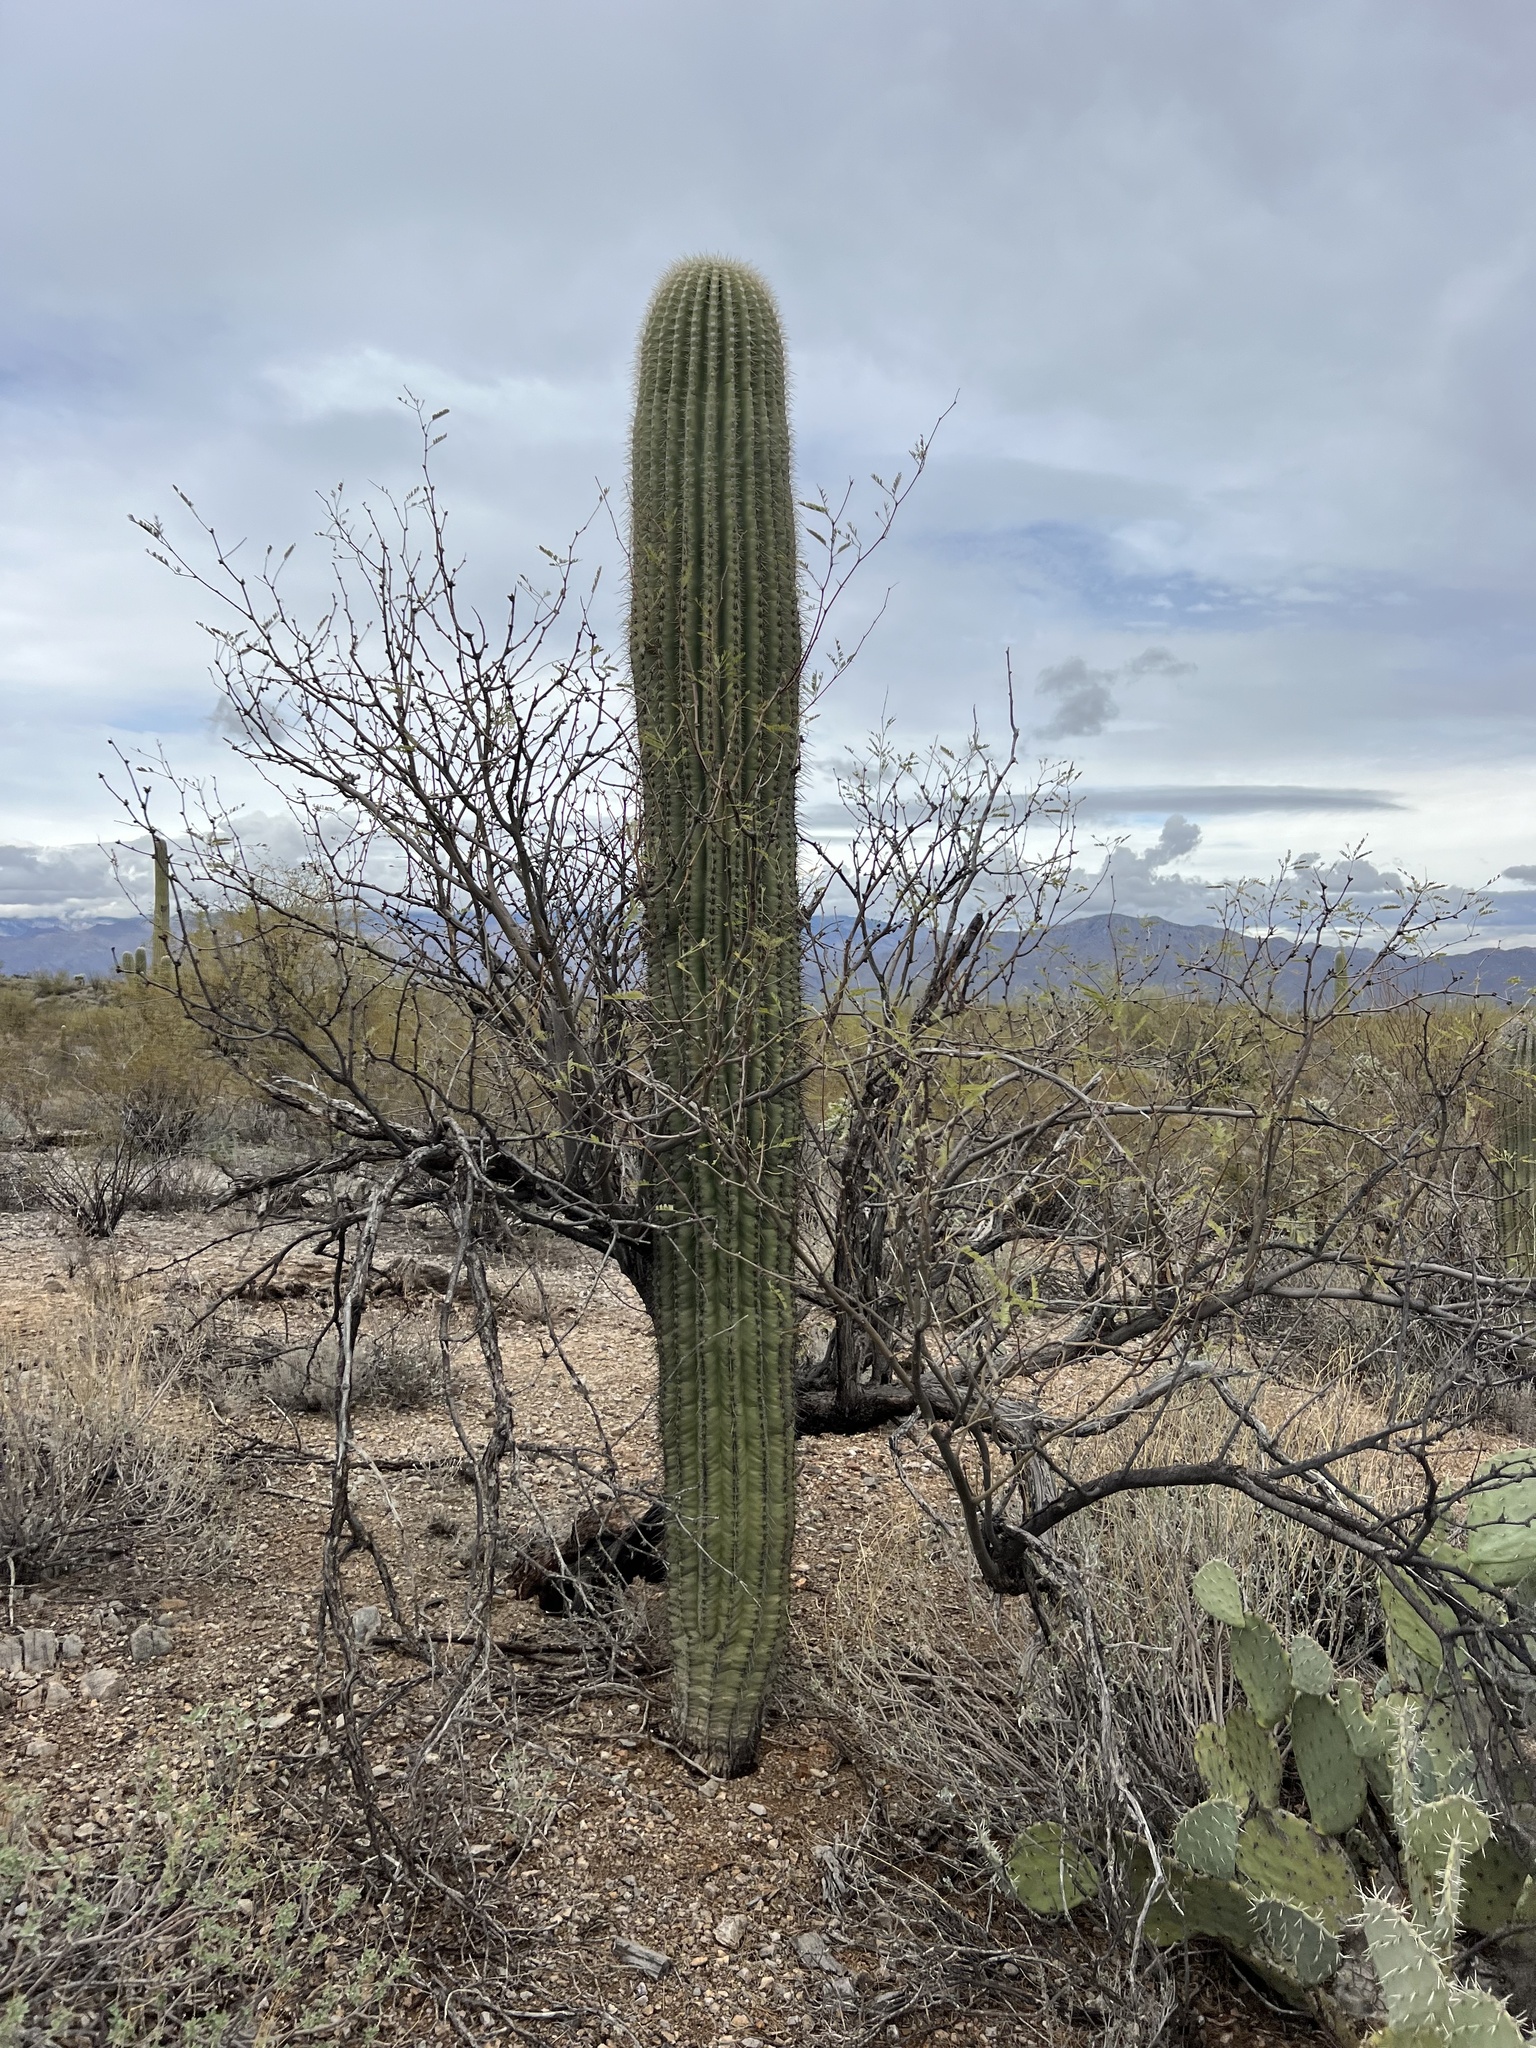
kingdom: Plantae
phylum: Tracheophyta
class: Magnoliopsida
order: Caryophyllales
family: Cactaceae
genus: Carnegiea
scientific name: Carnegiea gigantea
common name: Saguaro
